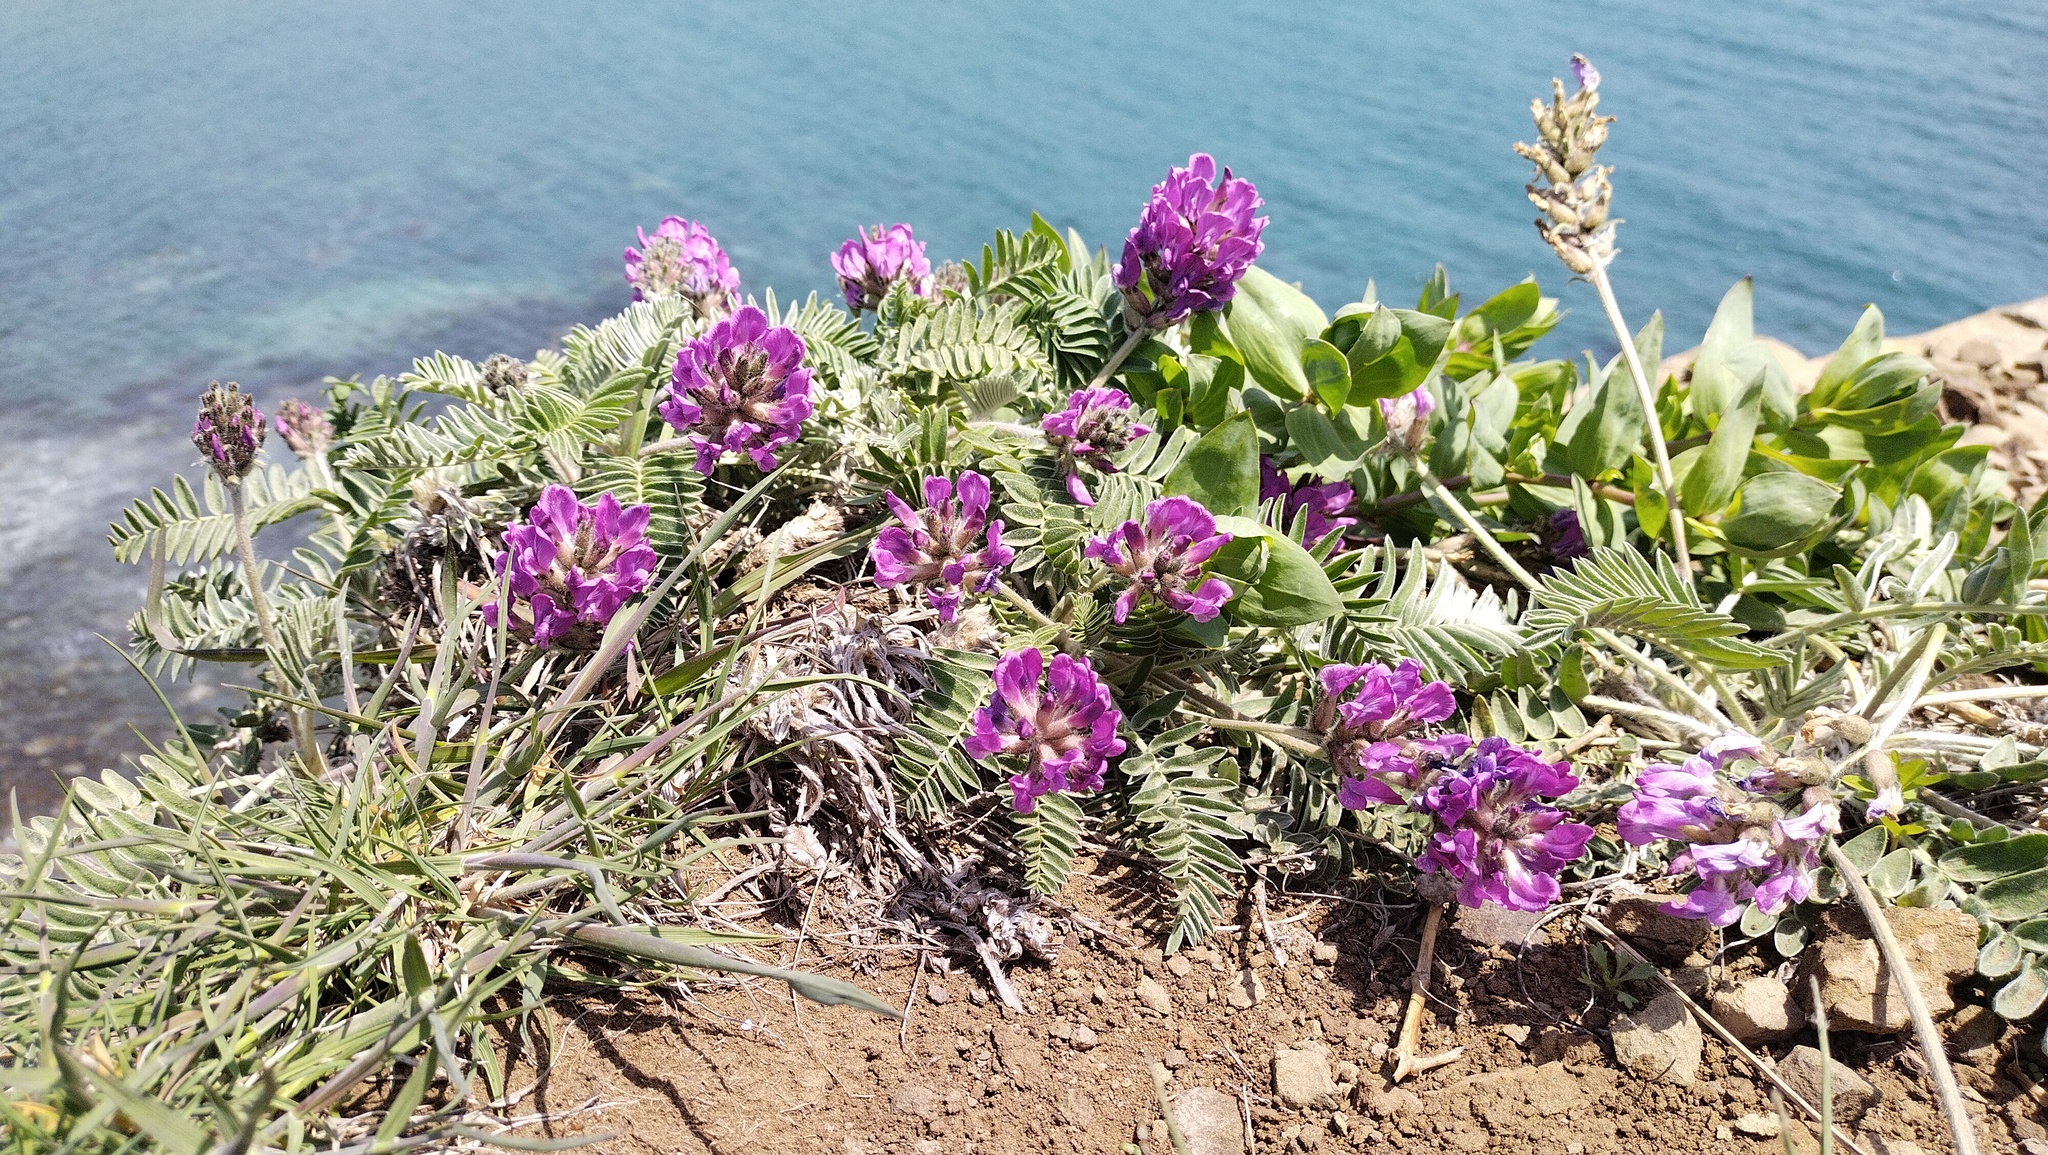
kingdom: Plantae
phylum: Tracheophyta
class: Magnoliopsida
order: Fabales
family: Fabaceae
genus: Oxytropis
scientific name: Oxytropis ruthenica
